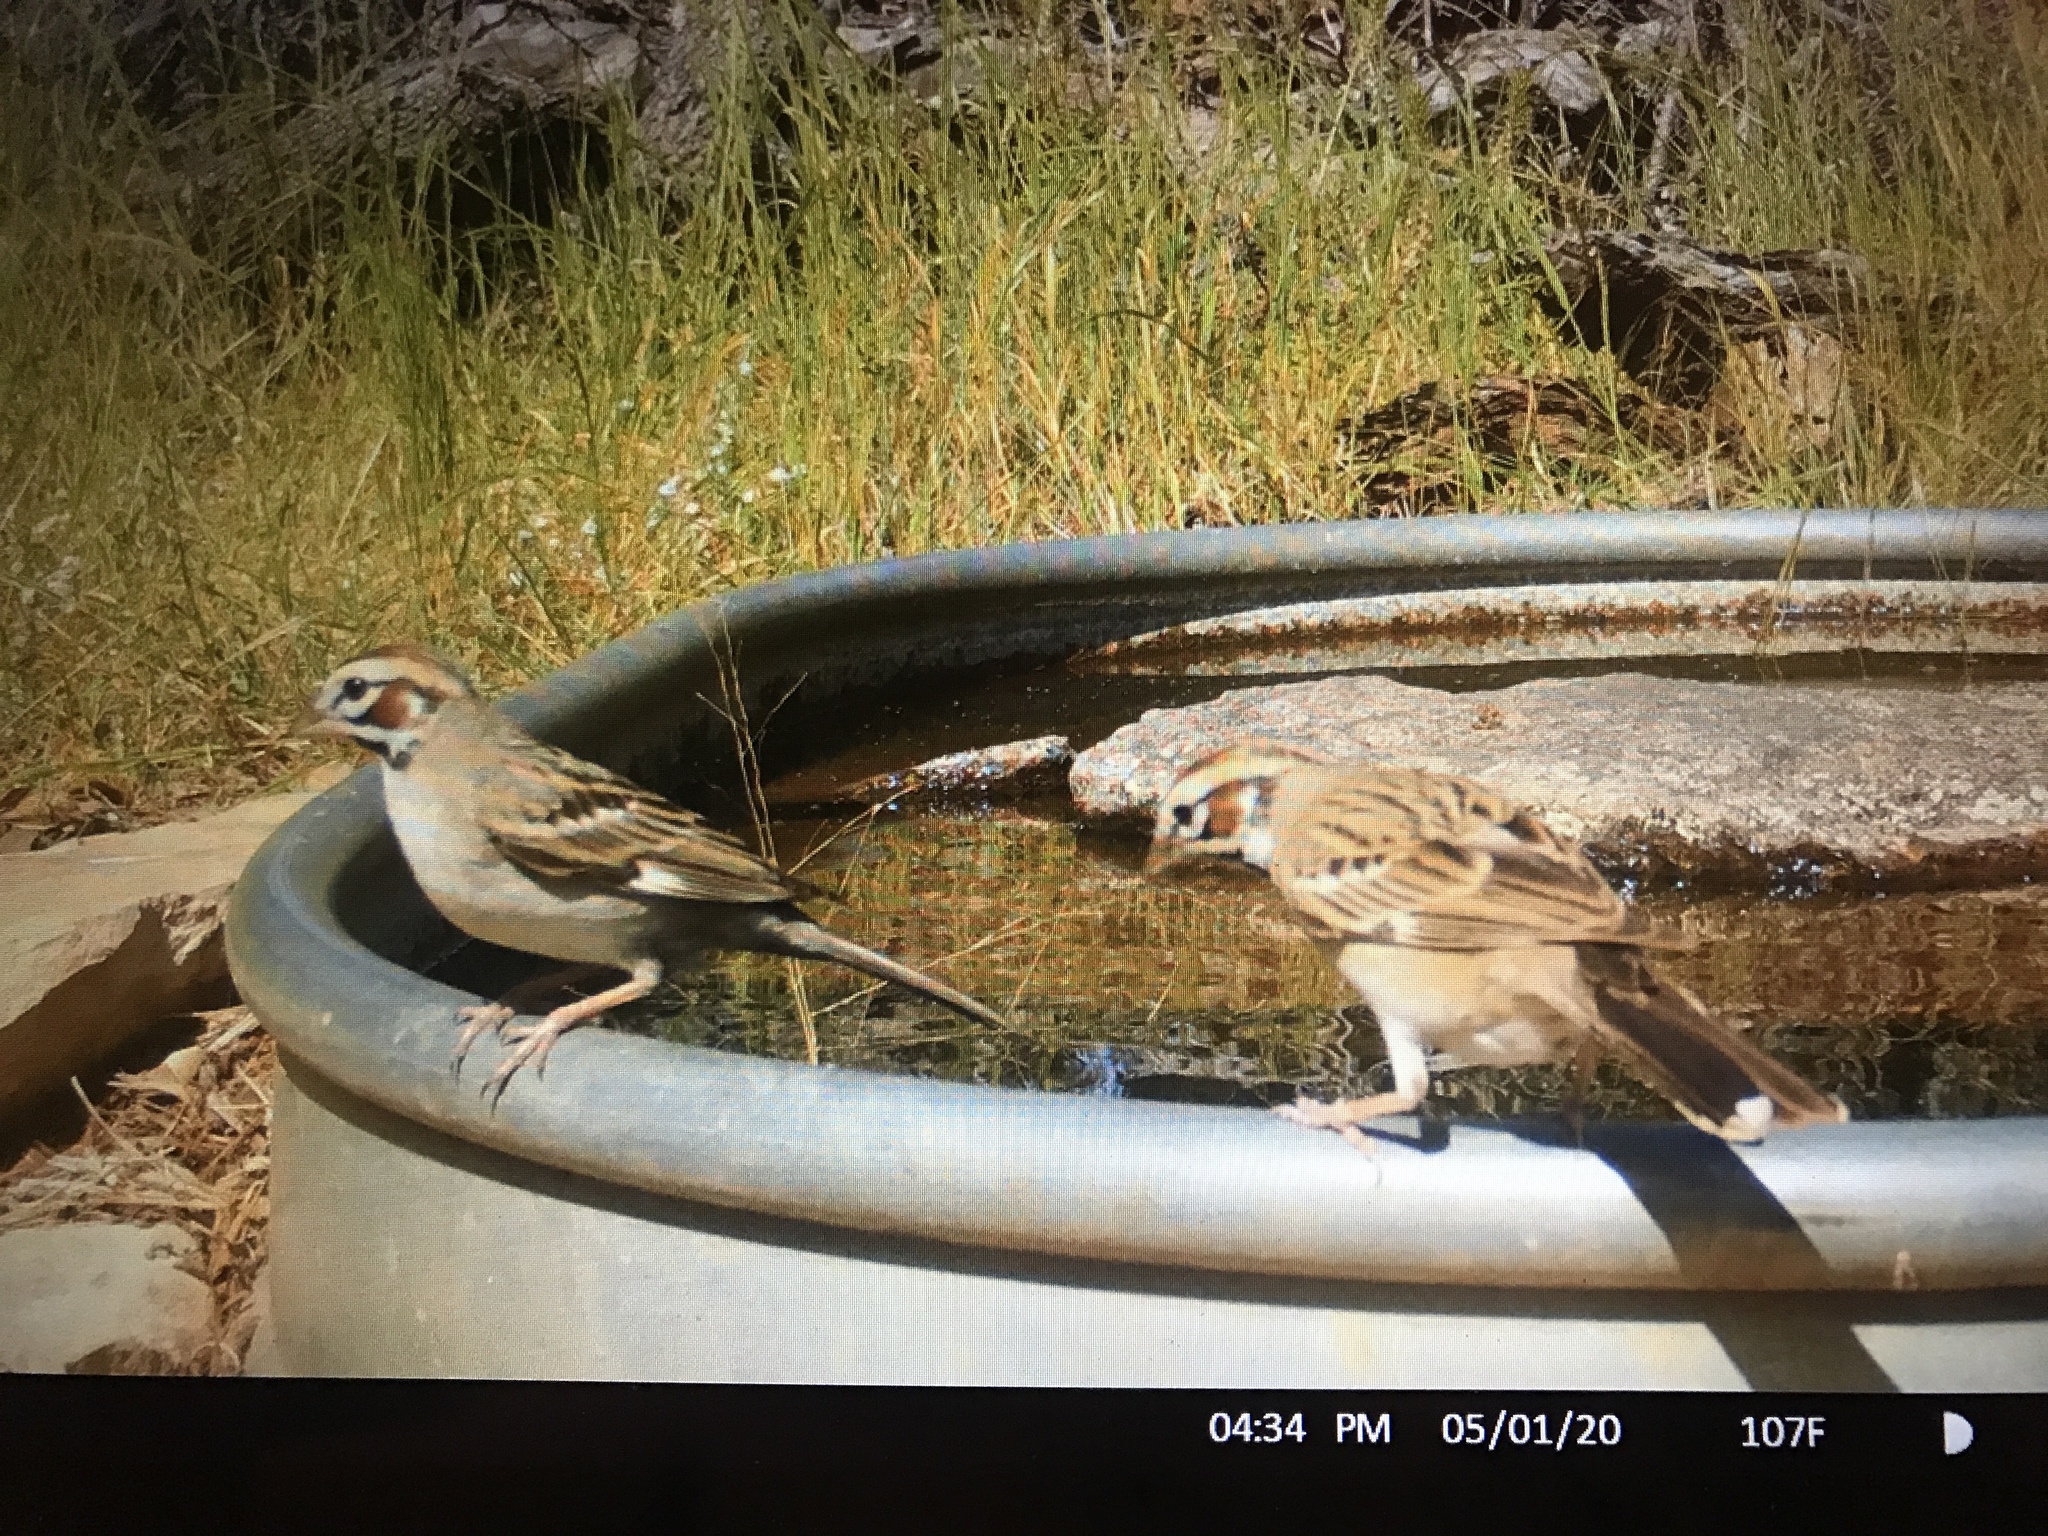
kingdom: Animalia
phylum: Chordata
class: Aves
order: Passeriformes
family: Passerellidae
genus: Chondestes
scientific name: Chondestes grammacus
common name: Lark sparrow
